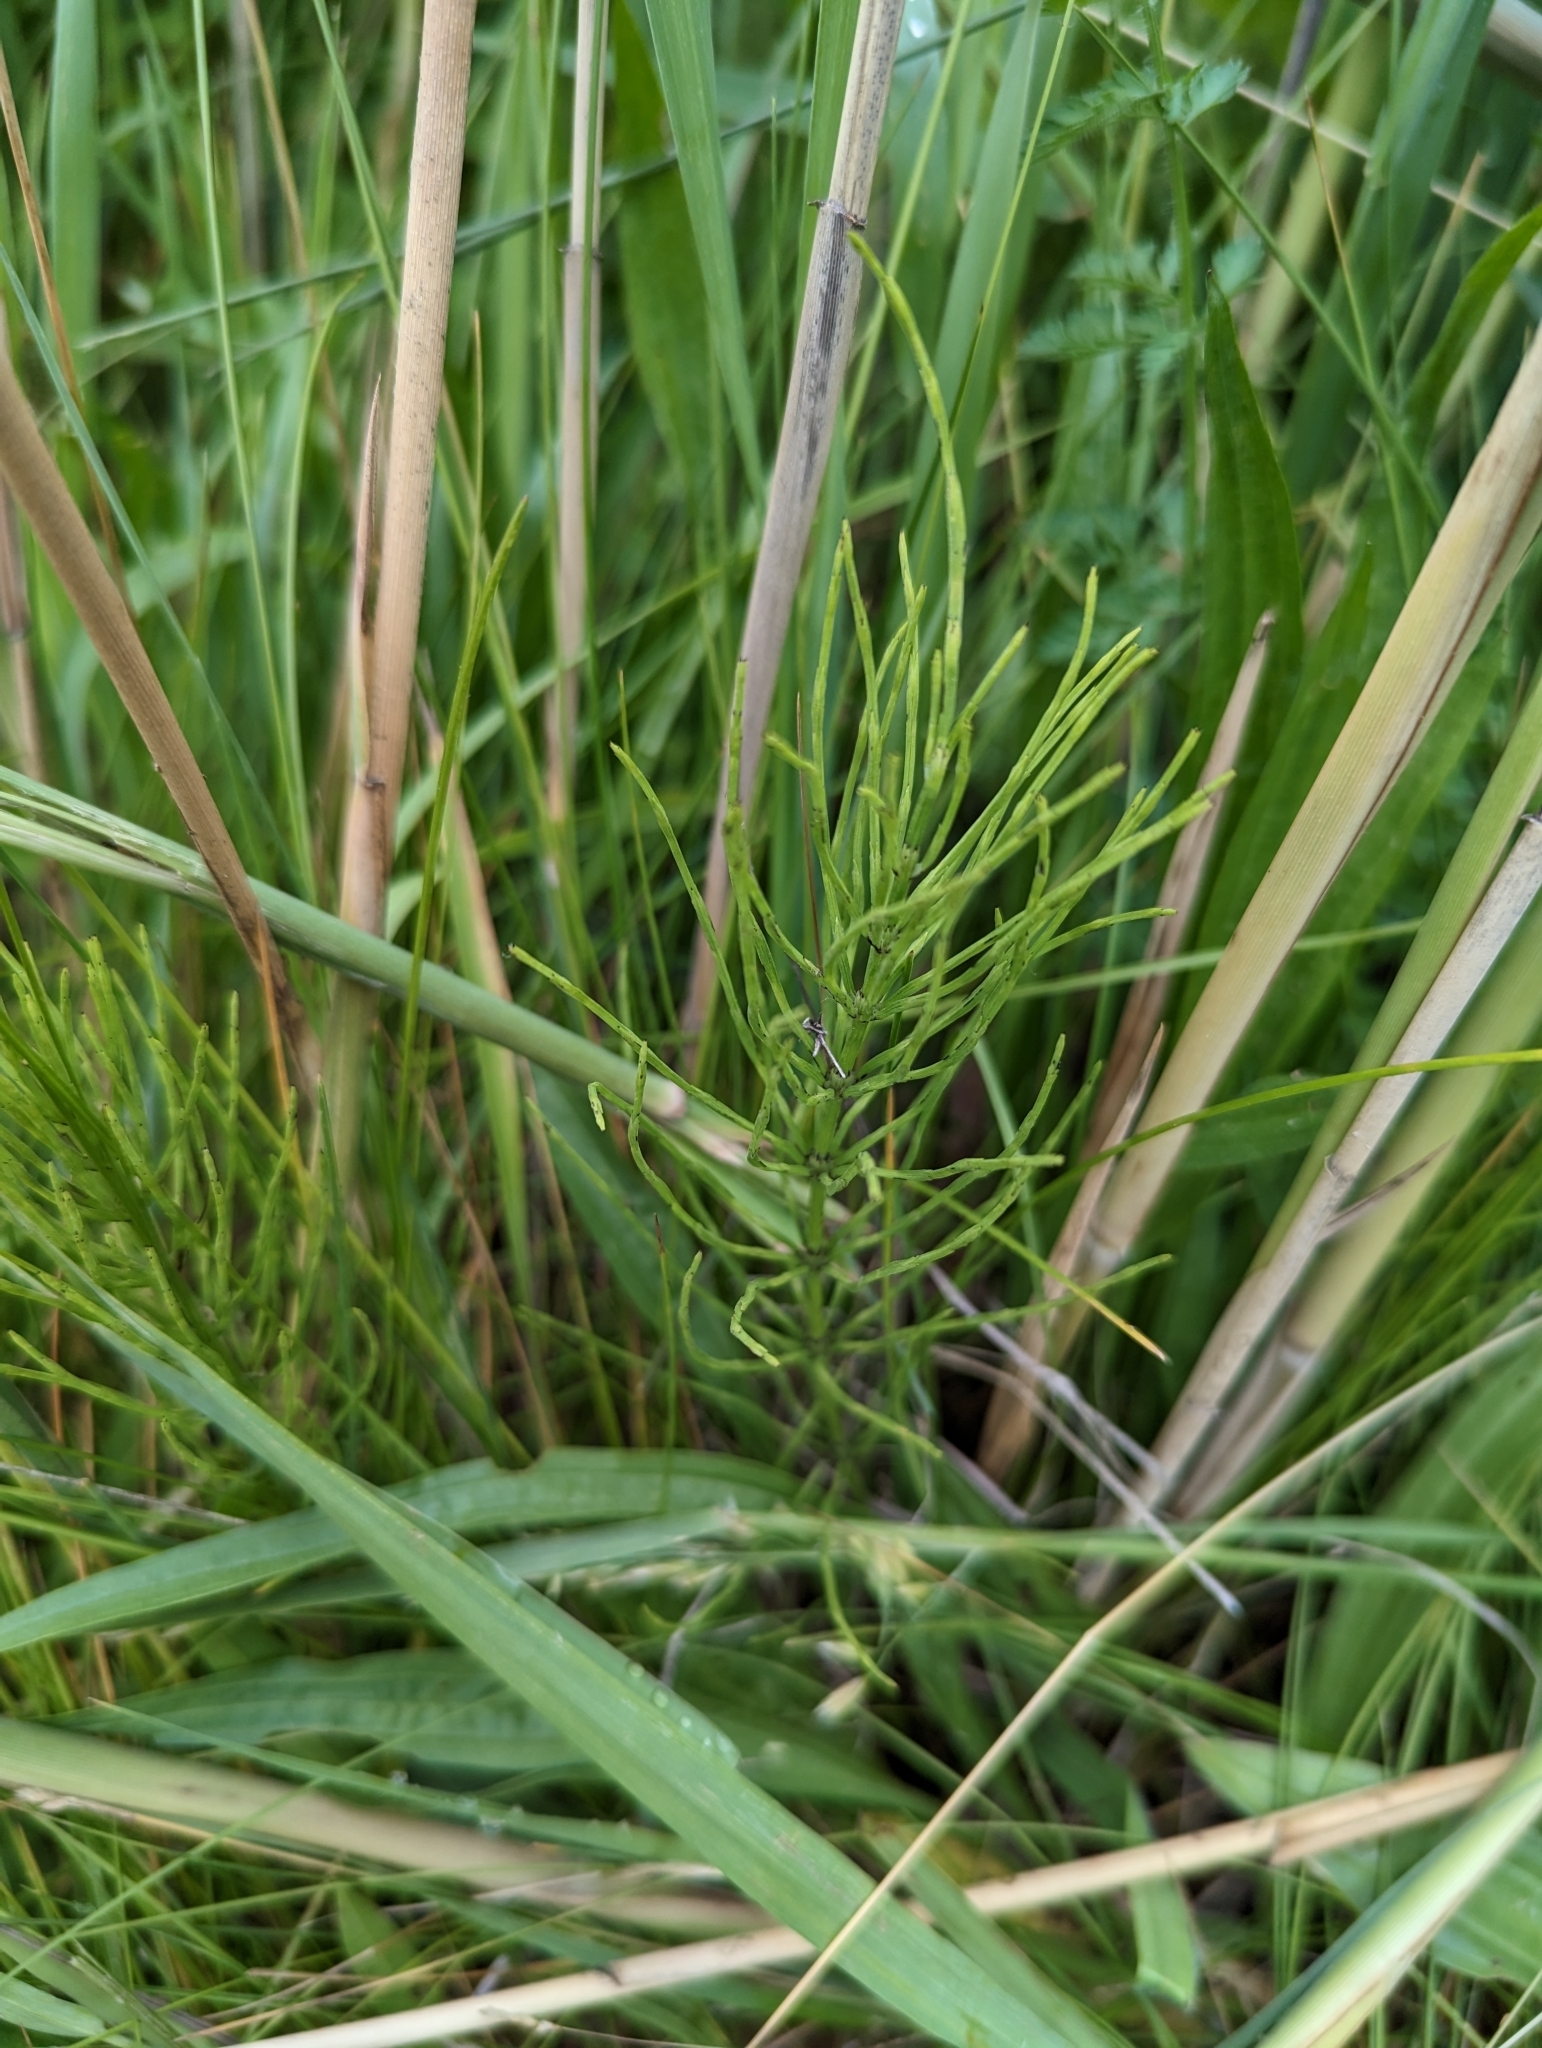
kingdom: Plantae
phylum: Tracheophyta
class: Polypodiopsida
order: Equisetales
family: Equisetaceae
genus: Equisetum
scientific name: Equisetum arvense
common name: Field horsetail
